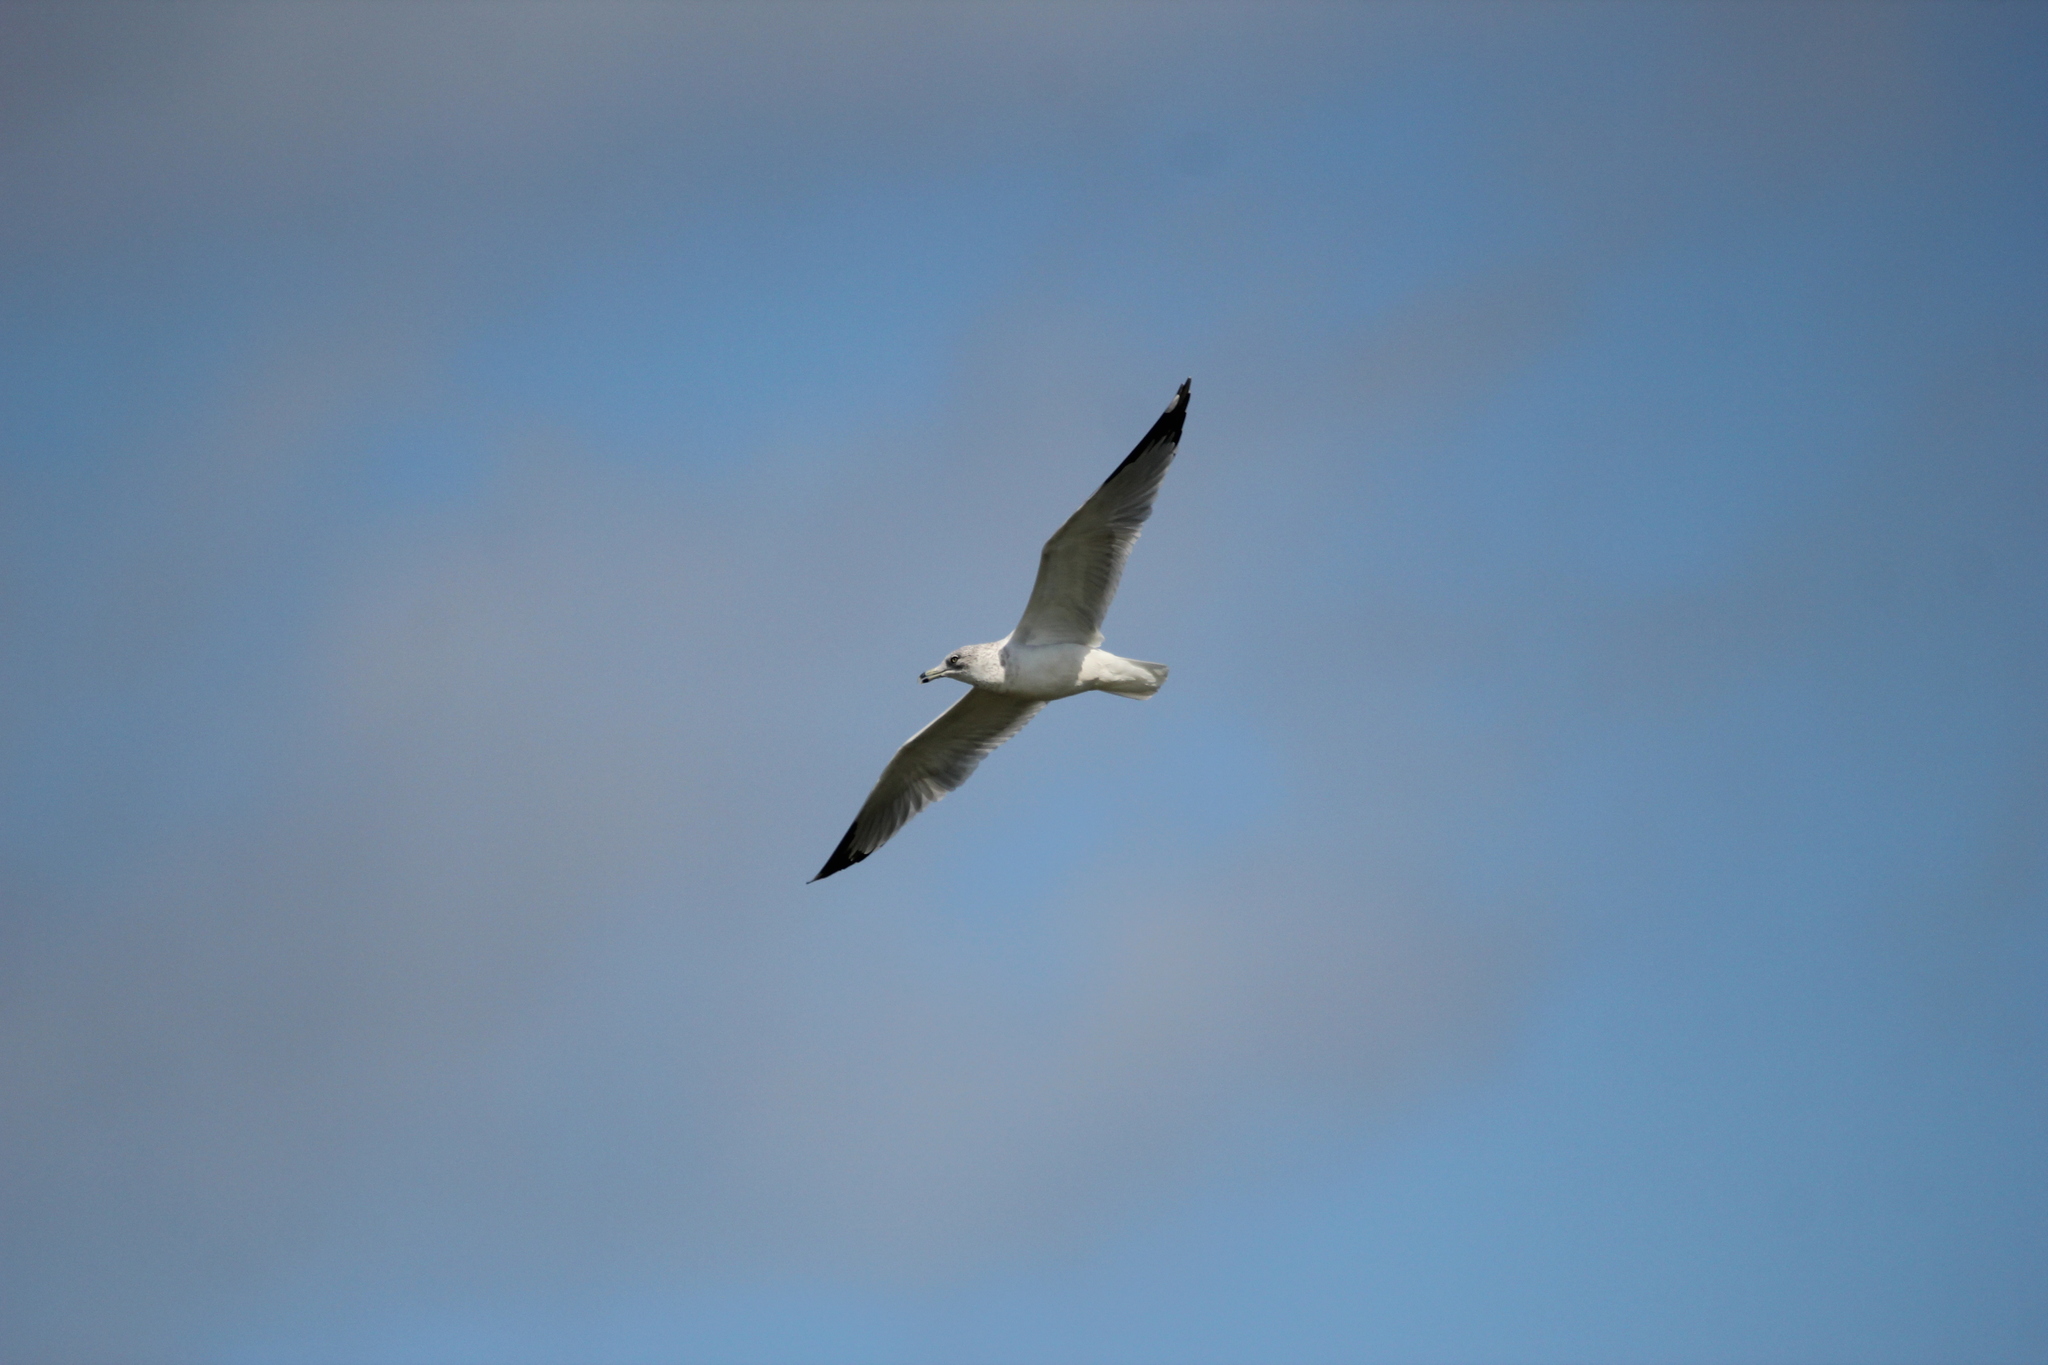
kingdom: Animalia
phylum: Chordata
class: Aves
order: Charadriiformes
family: Laridae
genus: Larus
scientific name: Larus delawarensis
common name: Ring-billed gull
